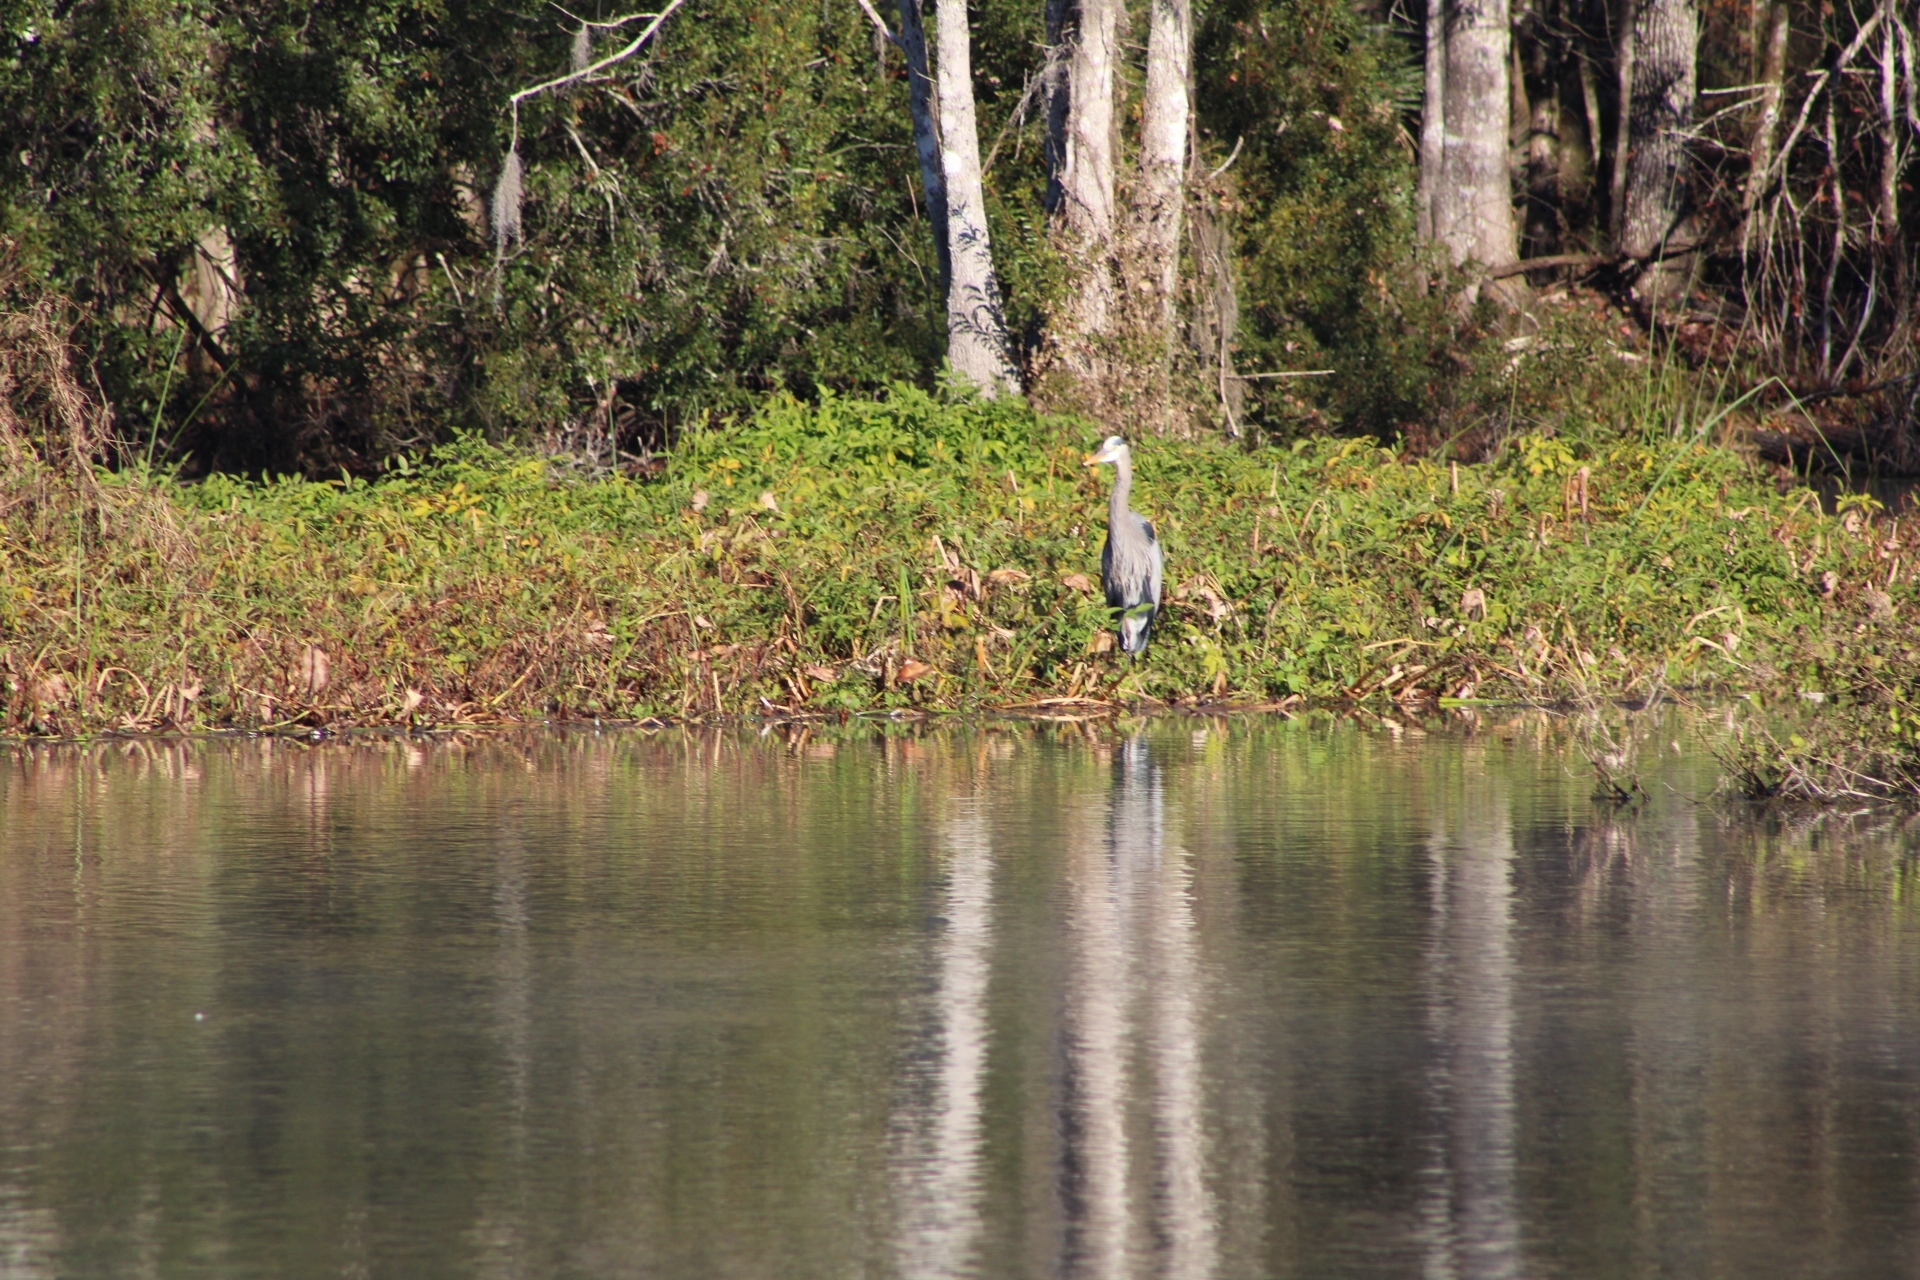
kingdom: Animalia
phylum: Chordata
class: Aves
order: Pelecaniformes
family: Ardeidae
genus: Ardea
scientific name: Ardea herodias
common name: Great blue heron
